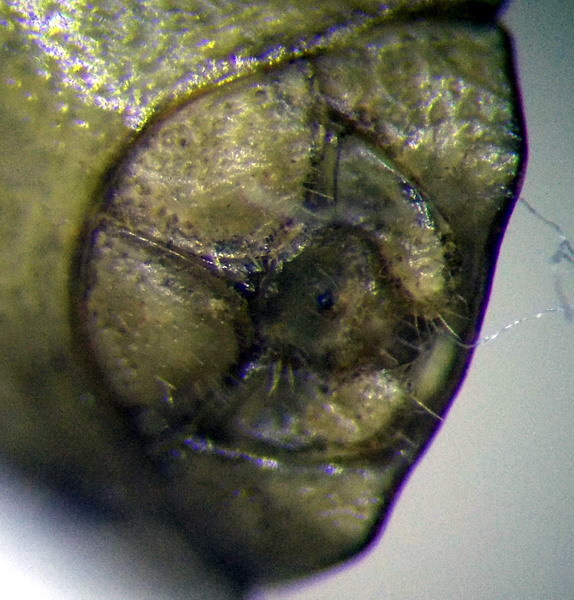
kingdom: Animalia
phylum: Arthropoda
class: Insecta
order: Hemiptera
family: Pentatomidae
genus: Aelia
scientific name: Aelia furcula
